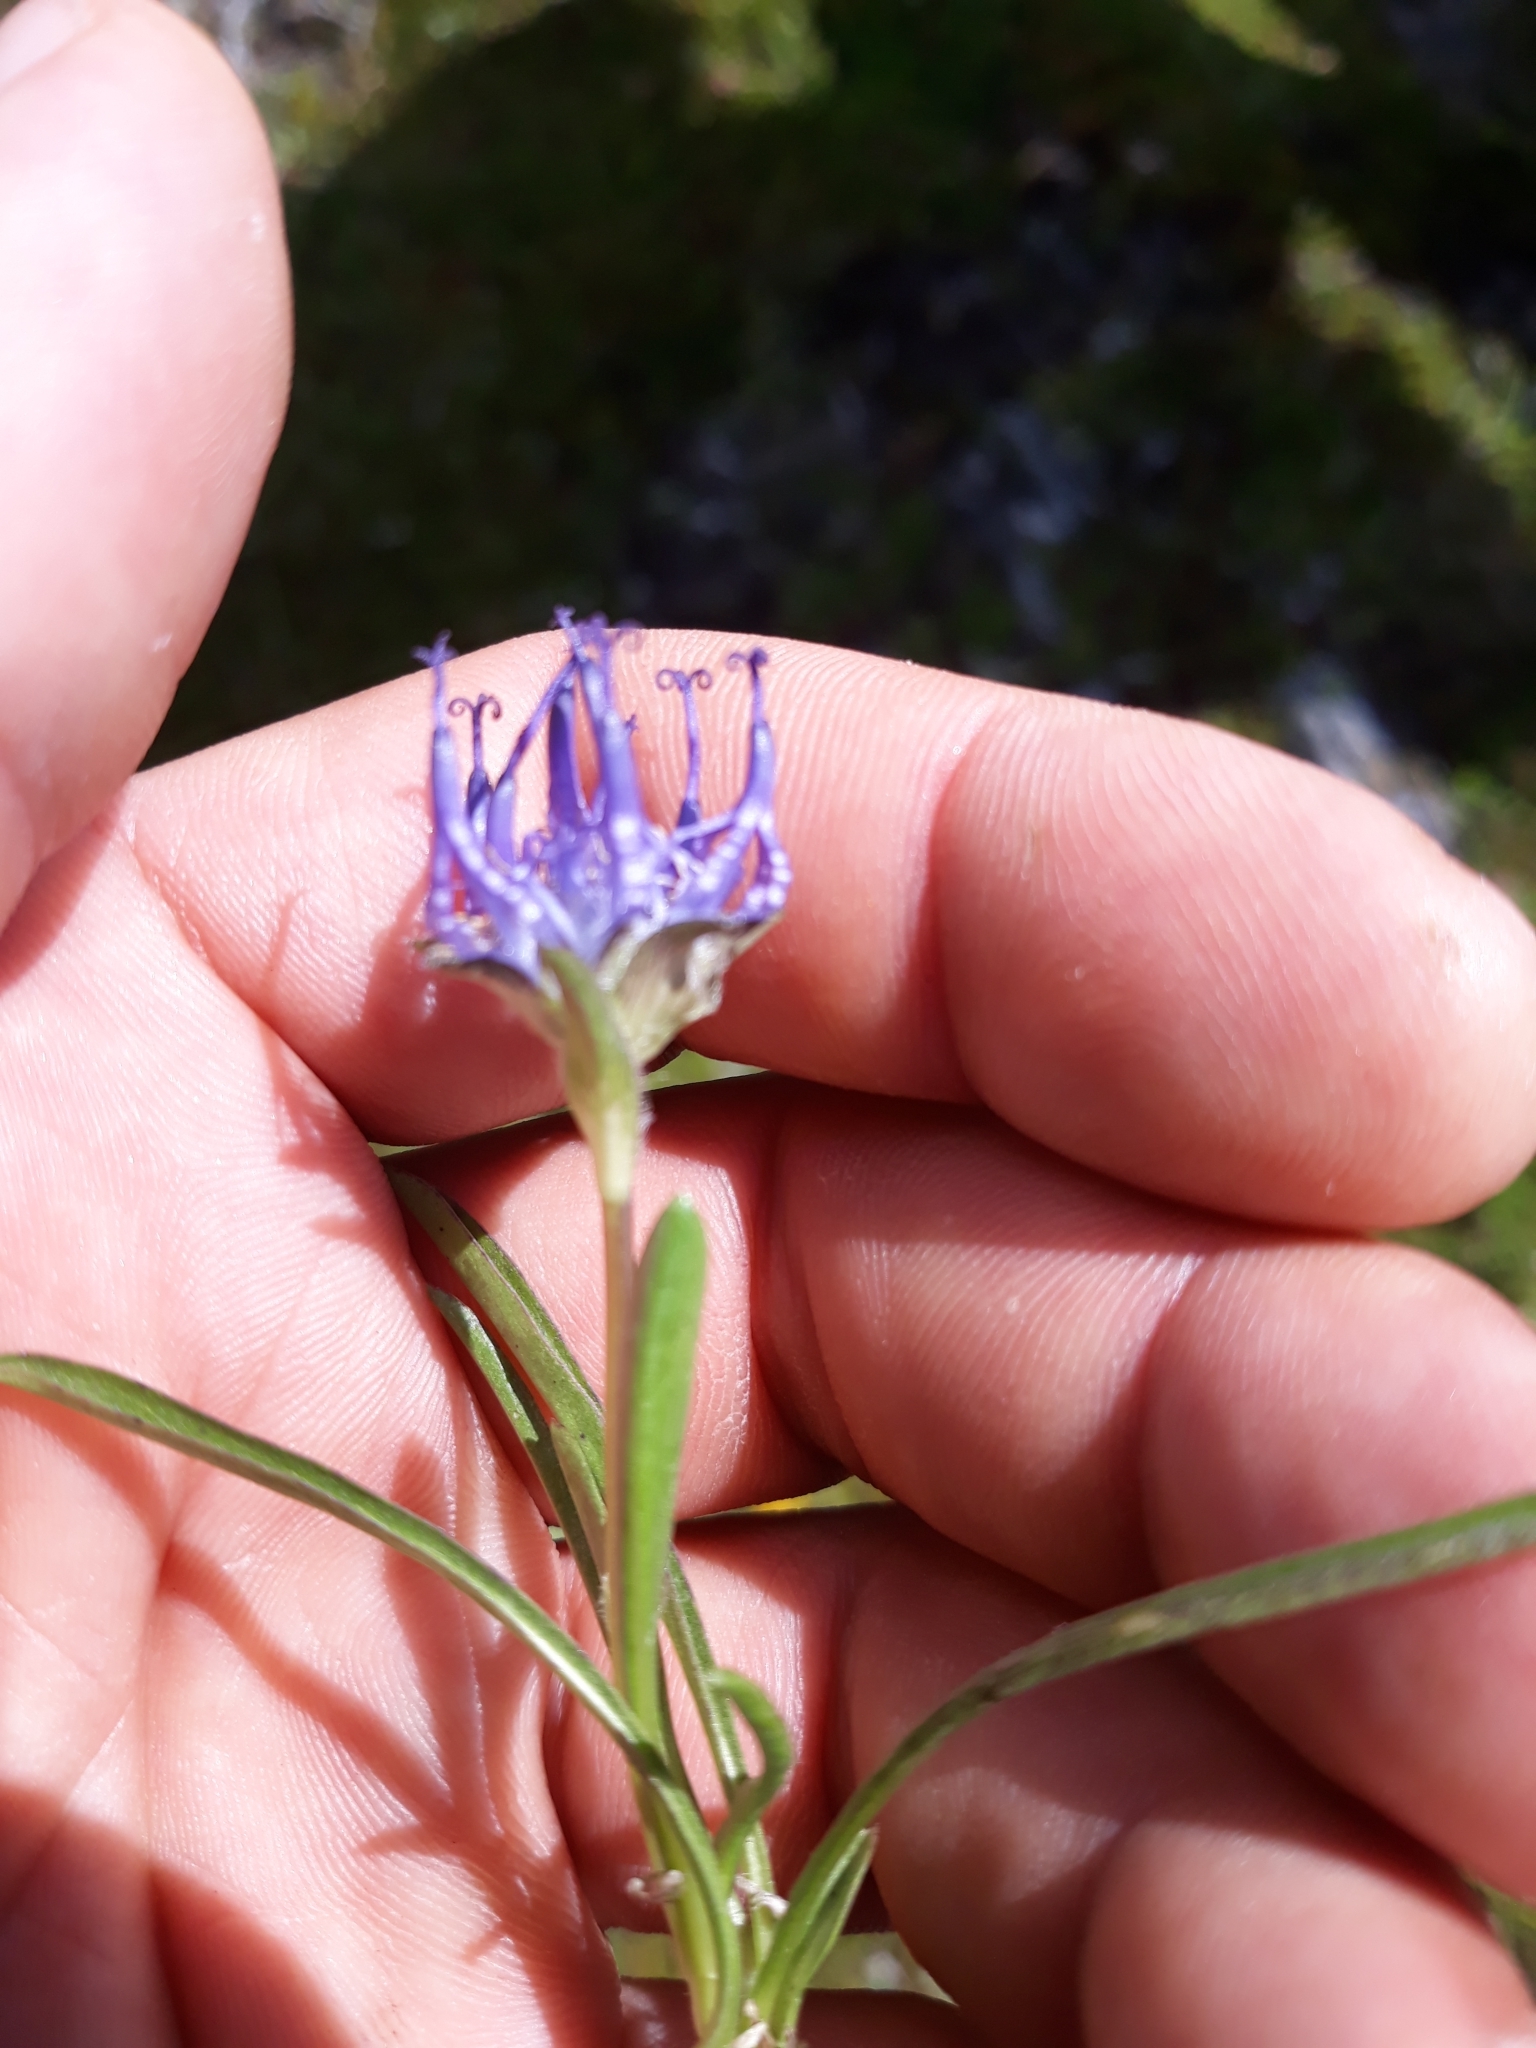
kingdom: Plantae
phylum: Tracheophyta
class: Magnoliopsida
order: Asterales
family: Campanulaceae
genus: Phyteuma
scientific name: Phyteuma confusum
